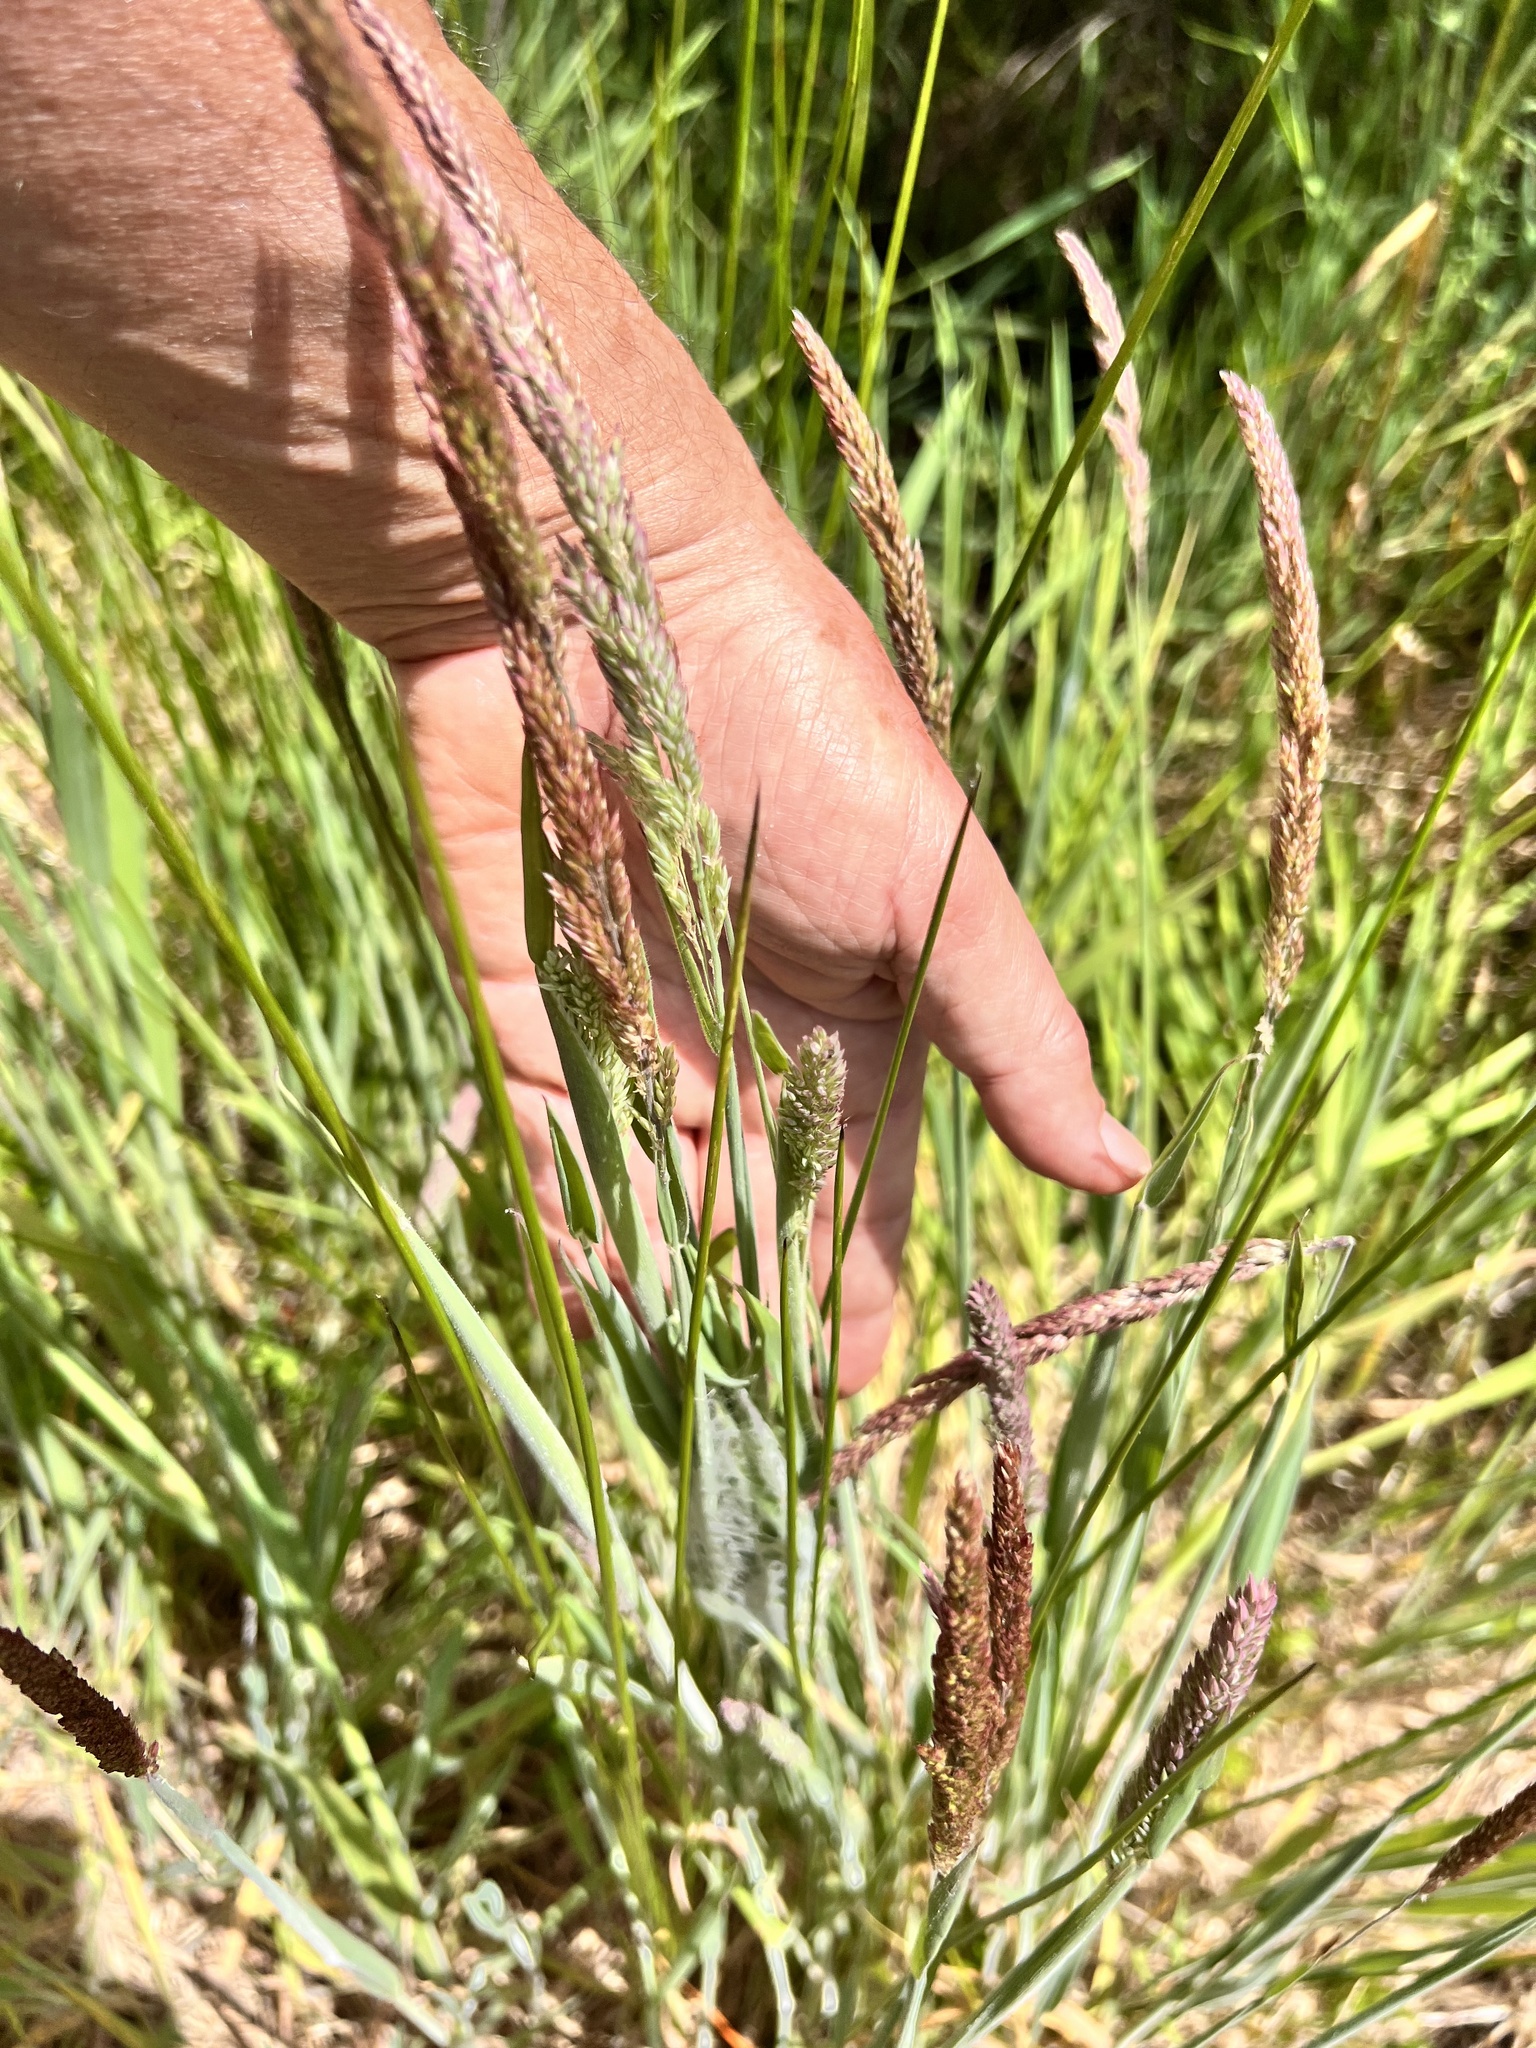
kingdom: Plantae
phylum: Tracheophyta
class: Liliopsida
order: Poales
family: Poaceae
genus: Holcus
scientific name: Holcus lanatus
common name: Yorkshire-fog
